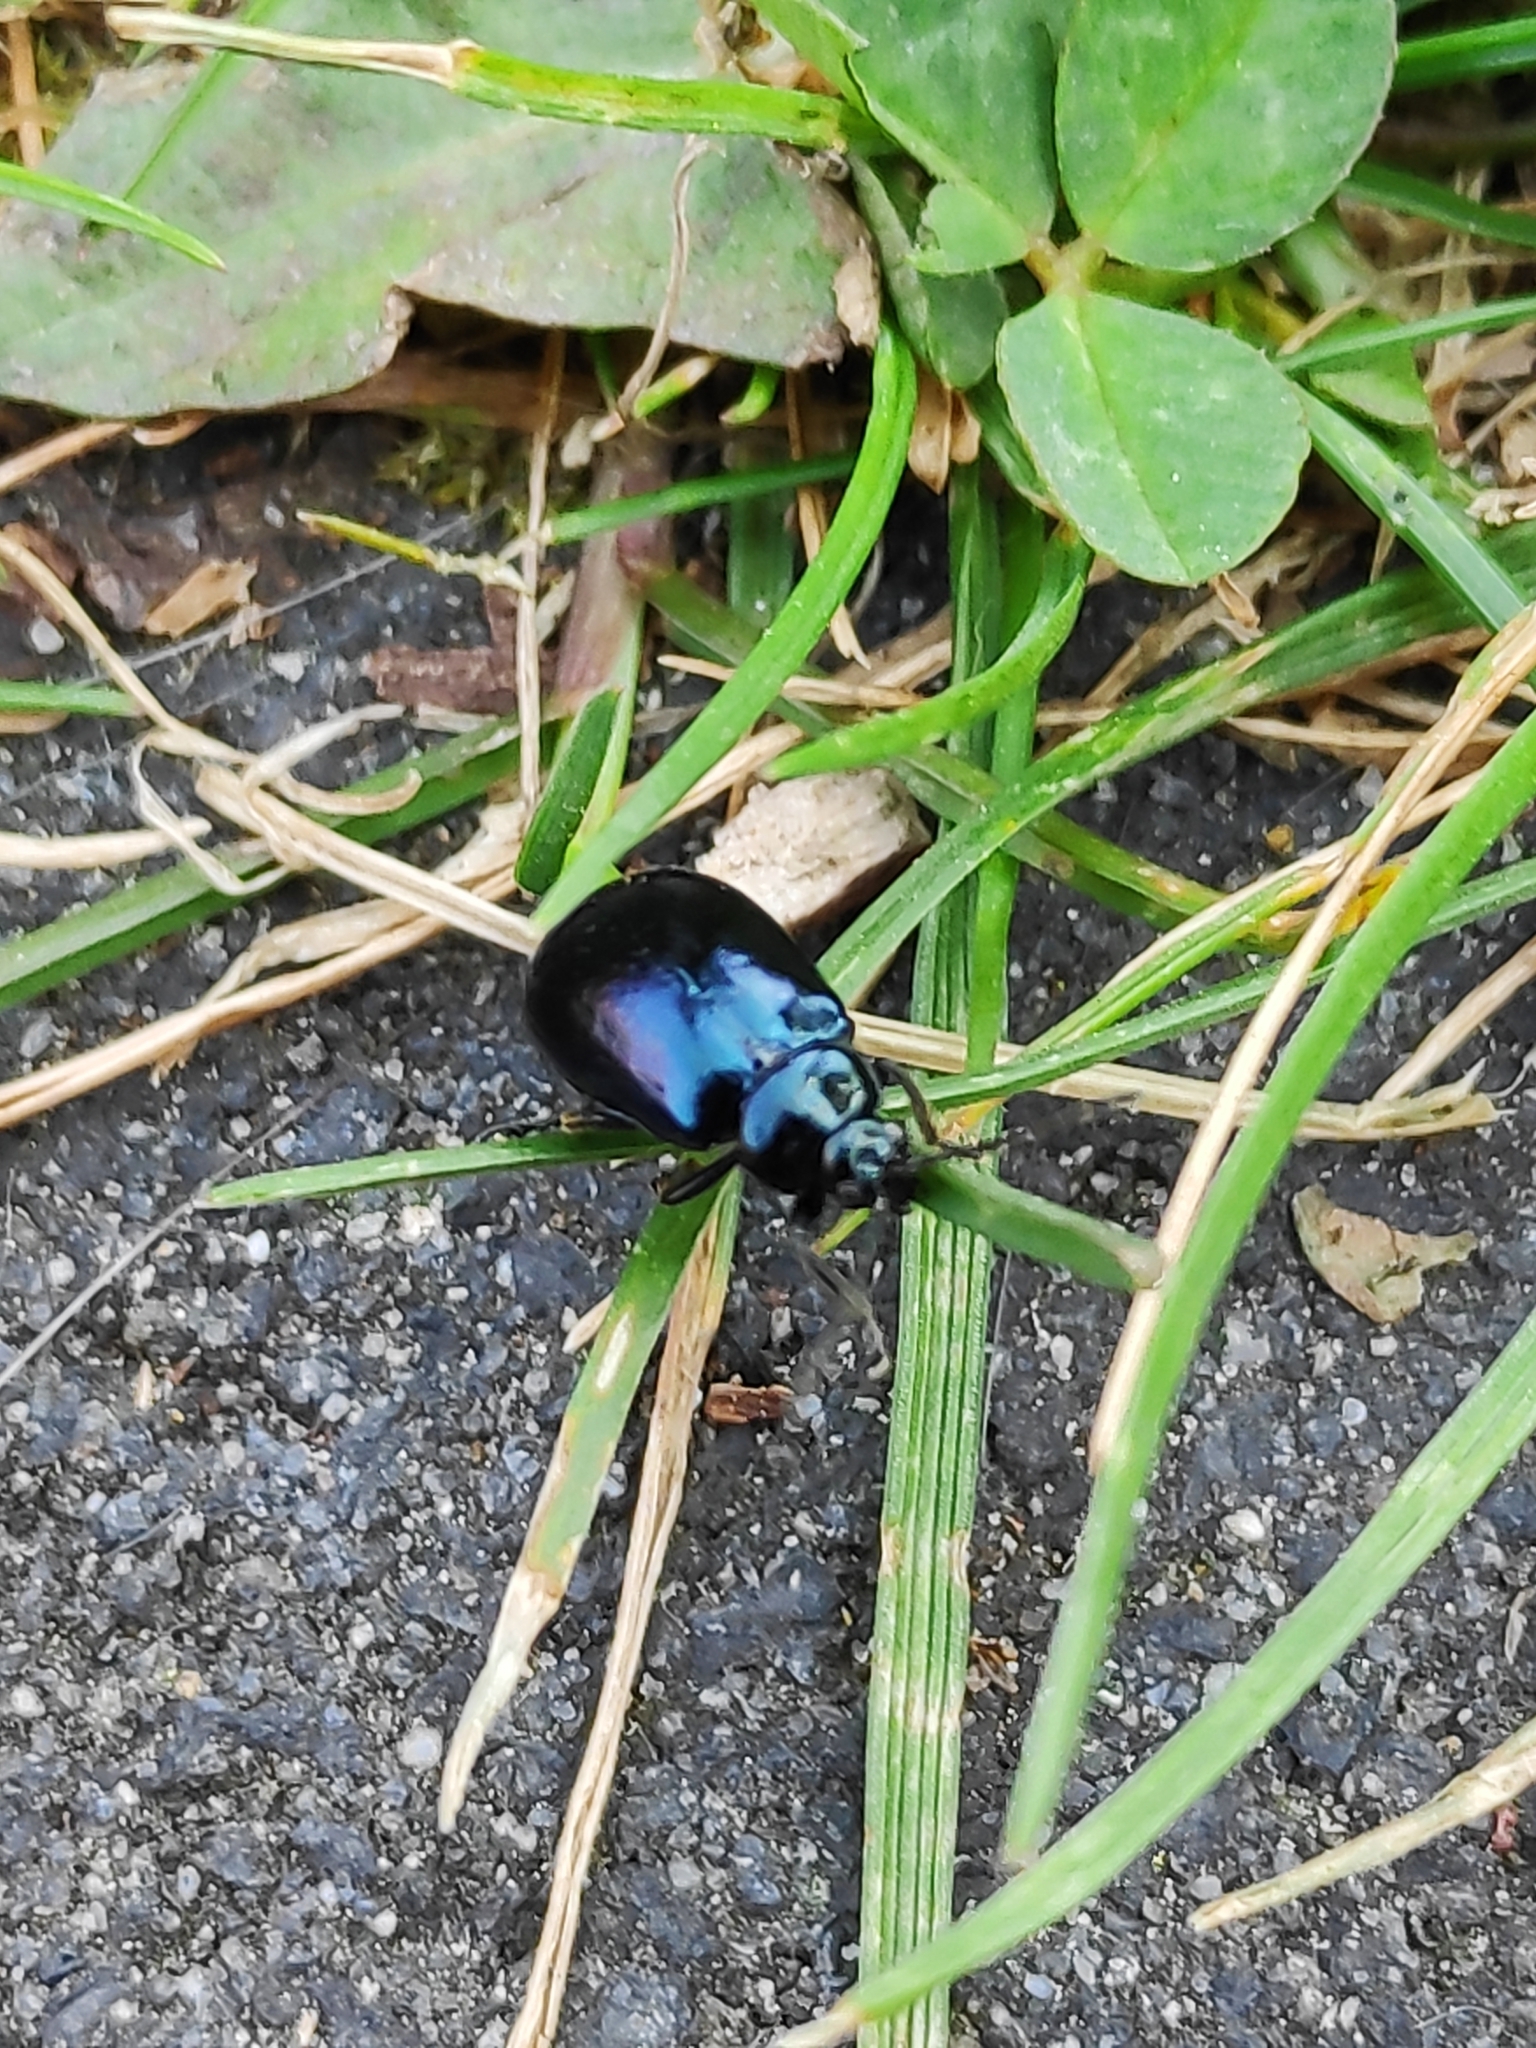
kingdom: Animalia
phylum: Arthropoda
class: Insecta
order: Coleoptera
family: Chrysomelidae
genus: Agelastica
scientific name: Agelastica alni
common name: Alder leaf beetle
